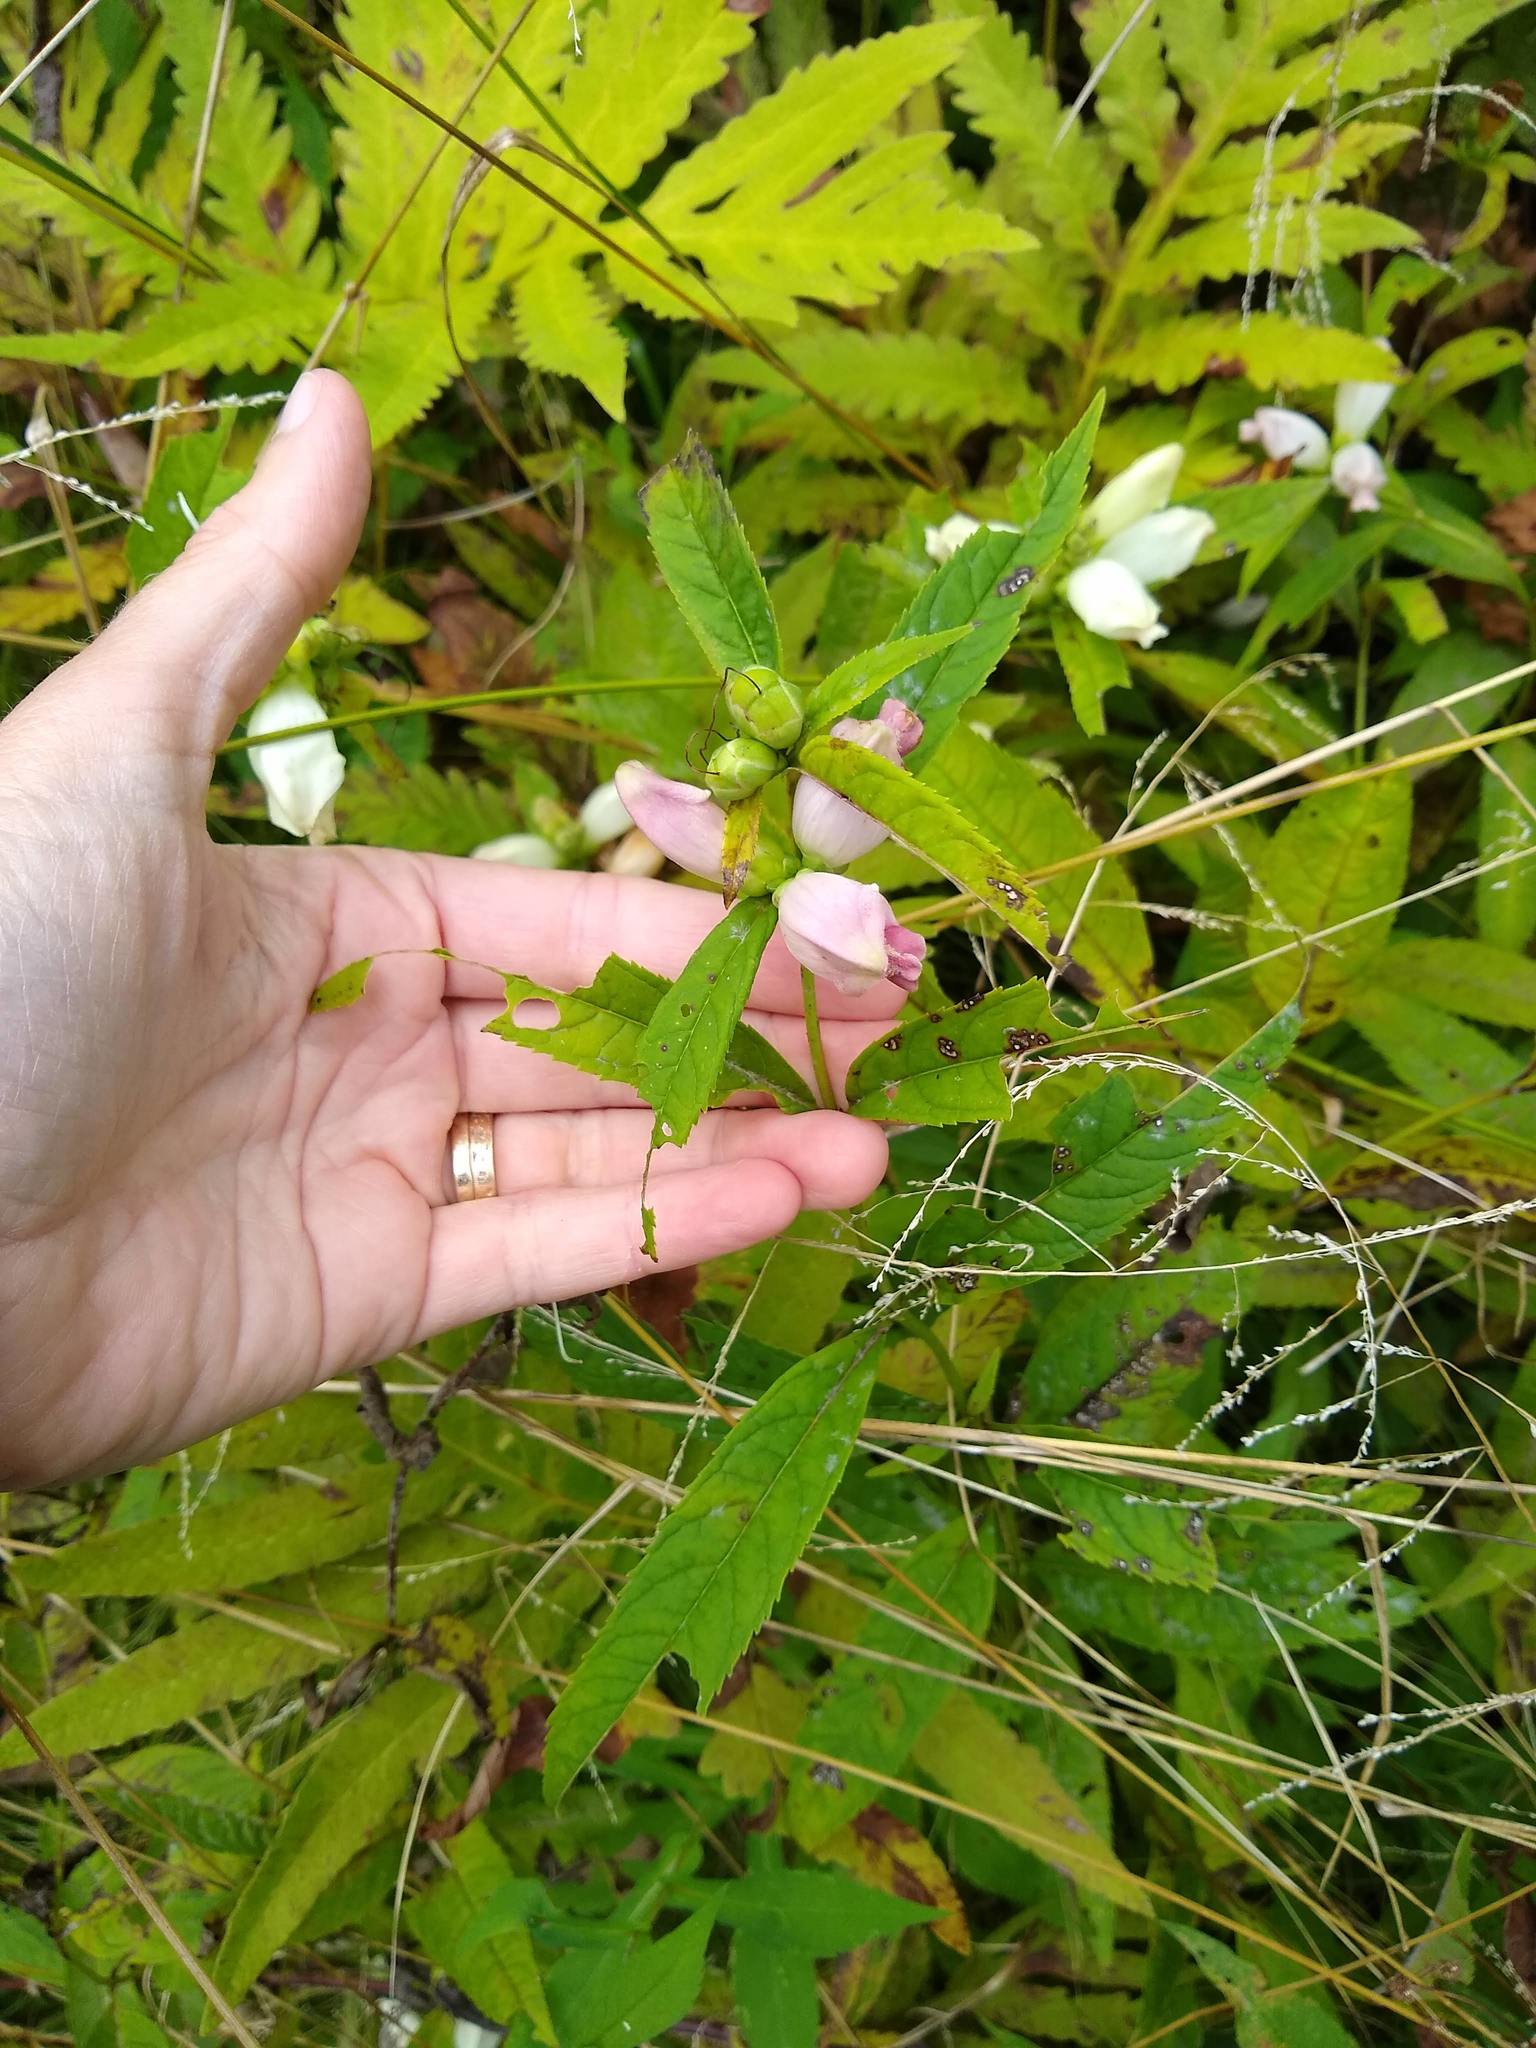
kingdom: Plantae
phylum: Tracheophyta
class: Magnoliopsida
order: Lamiales
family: Plantaginaceae
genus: Chelone
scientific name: Chelone glabra
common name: Snakehead
